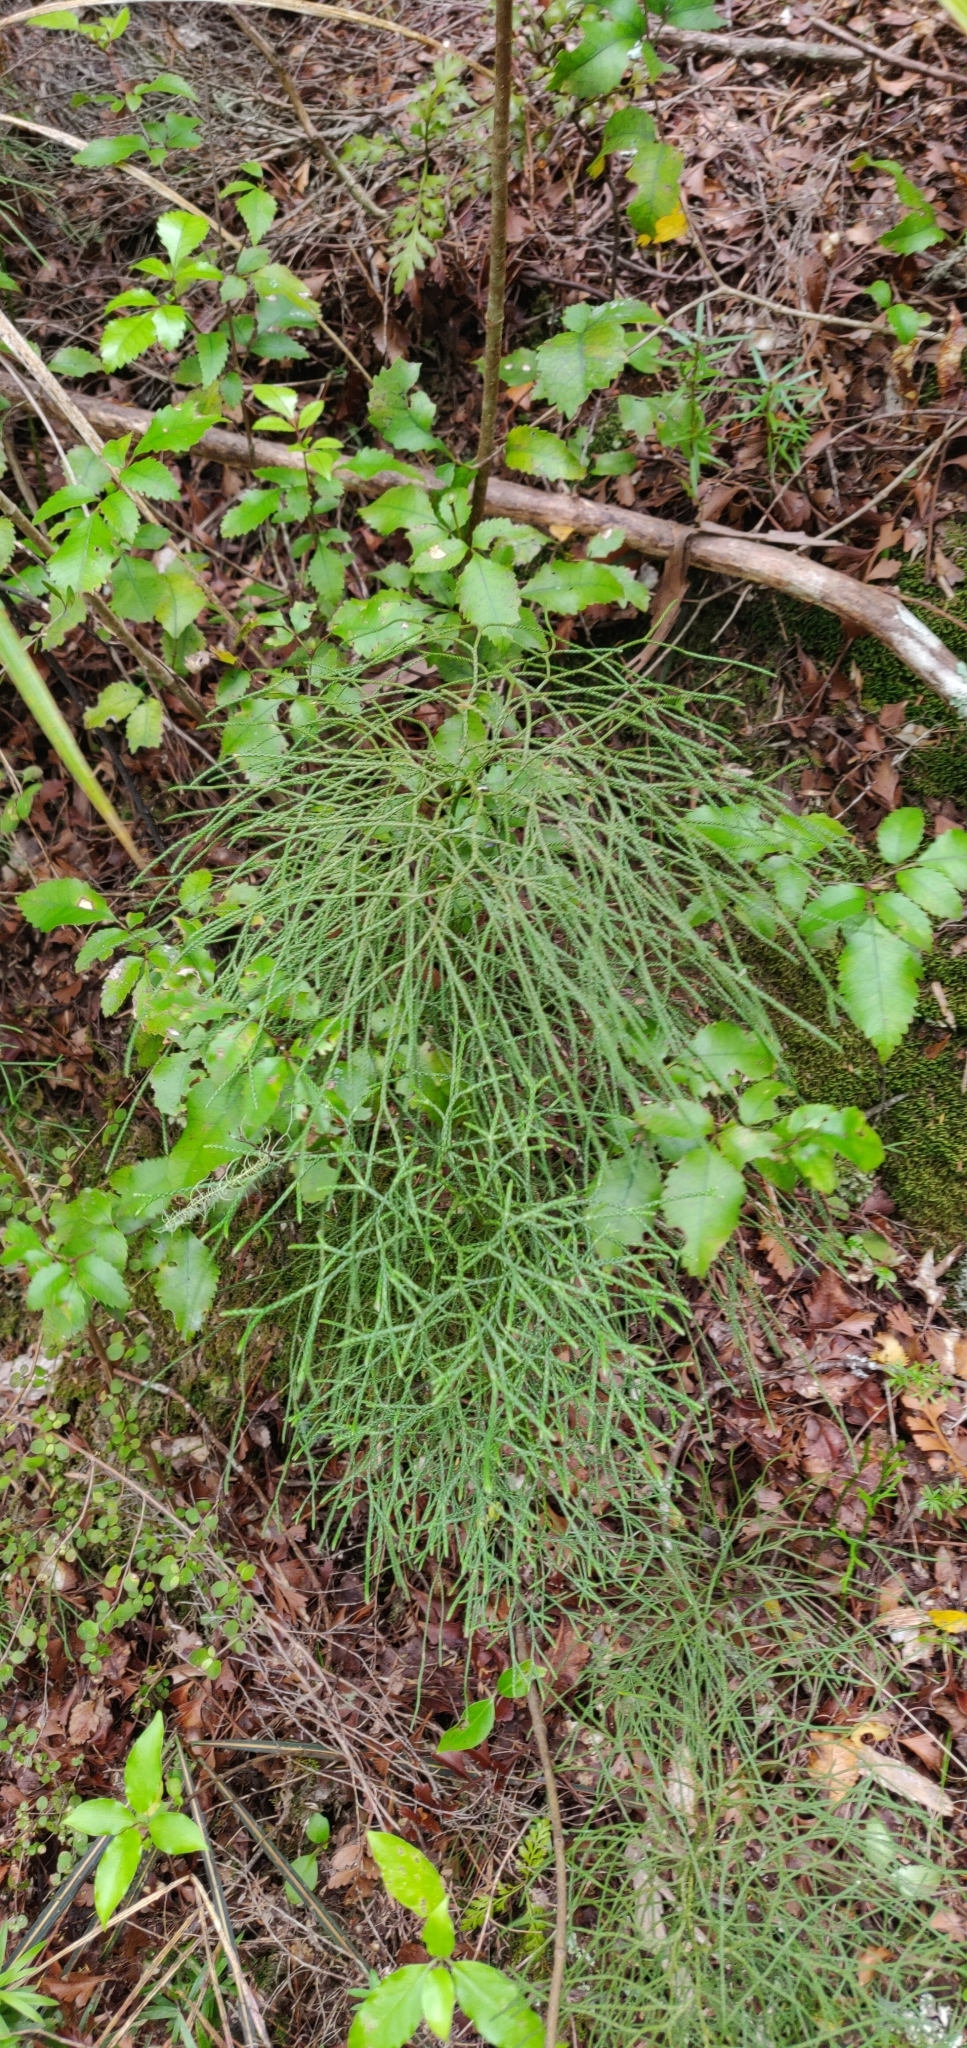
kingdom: Plantae
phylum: Tracheophyta
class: Lycopodiopsida
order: Lycopodiales
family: Lycopodiaceae
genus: Pseudolycopodium
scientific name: Pseudolycopodium densum
